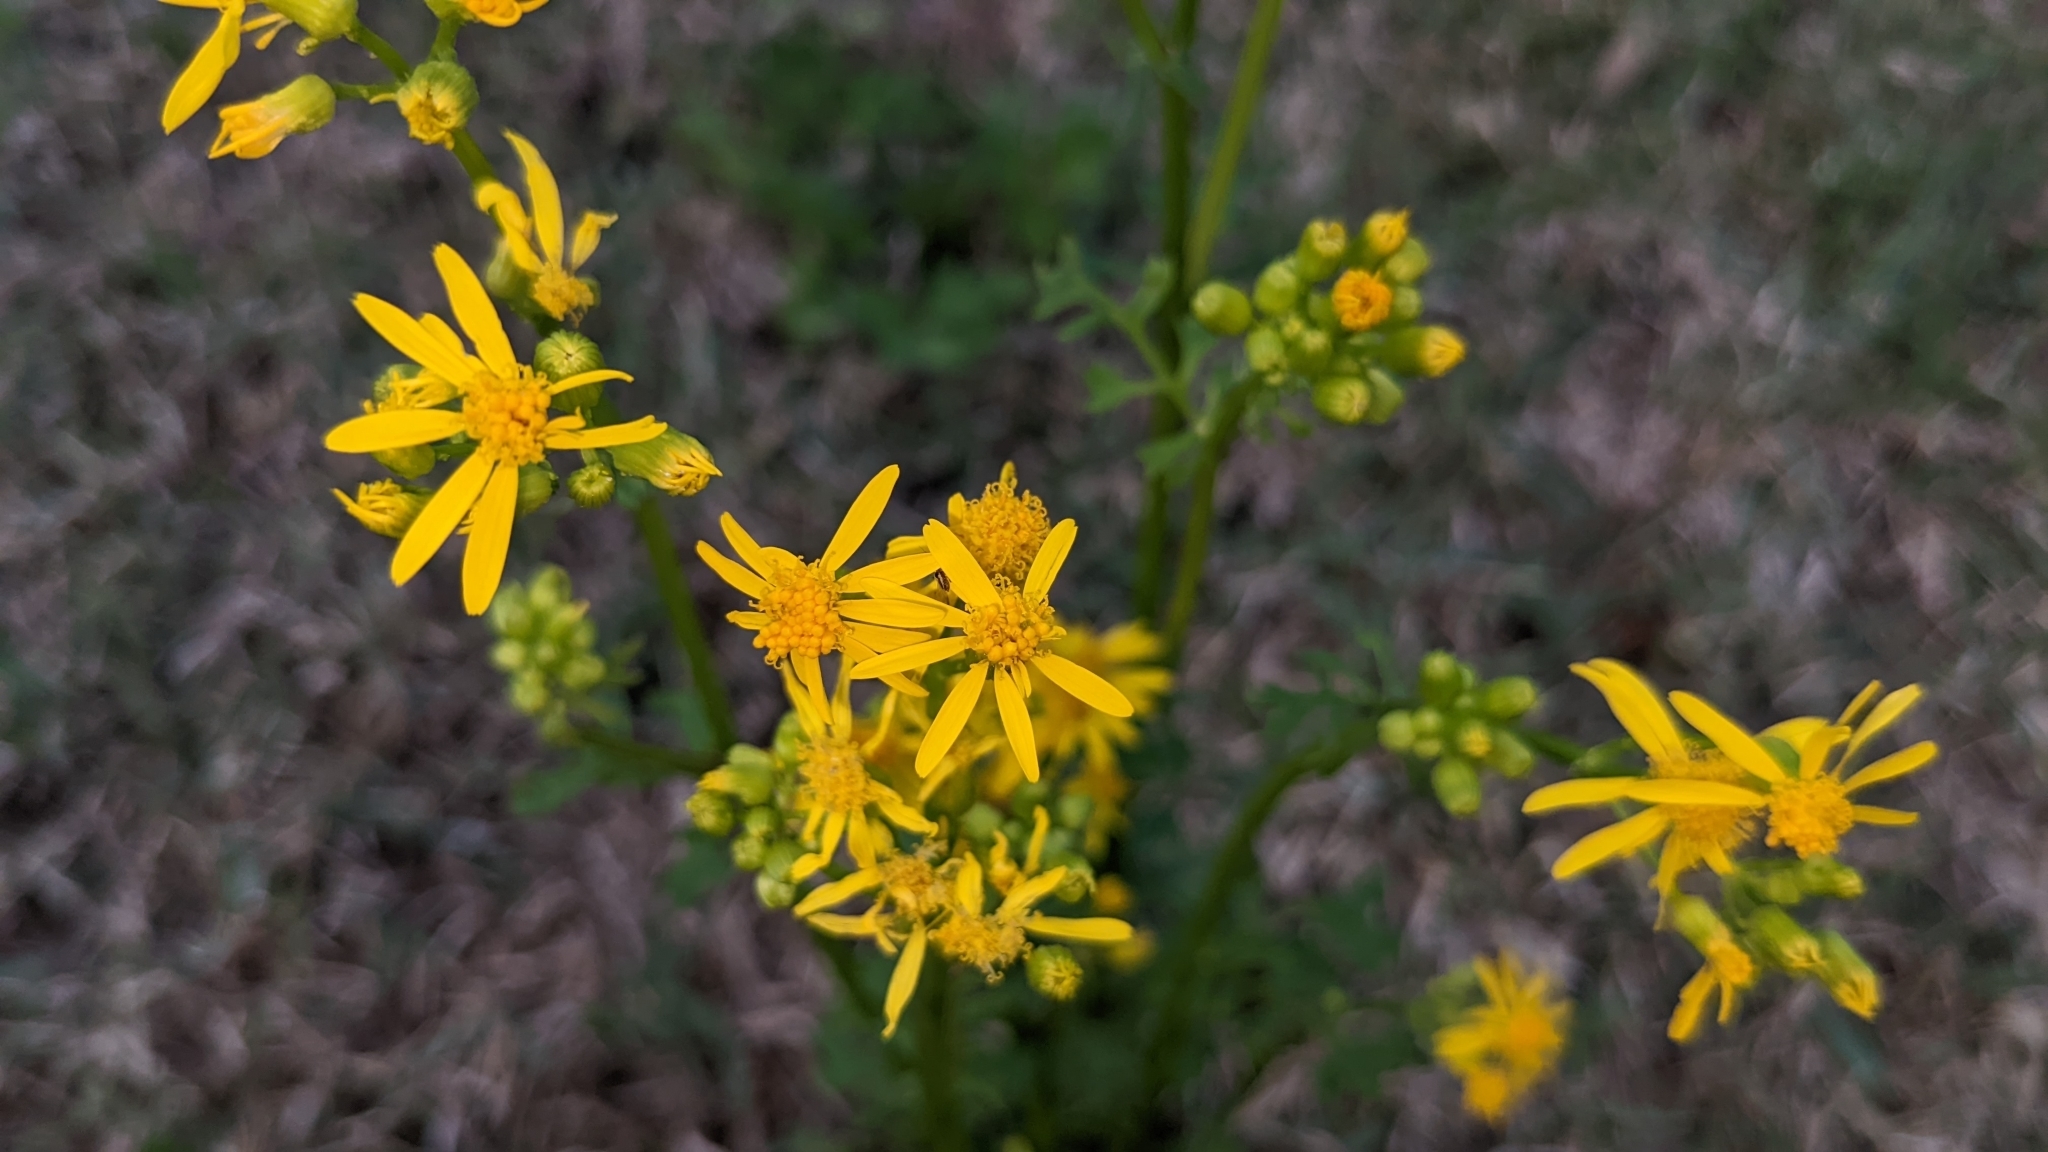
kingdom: Plantae
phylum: Tracheophyta
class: Magnoliopsida
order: Asterales
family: Asteraceae
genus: Packera
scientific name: Packera glabella
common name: Butterweed
